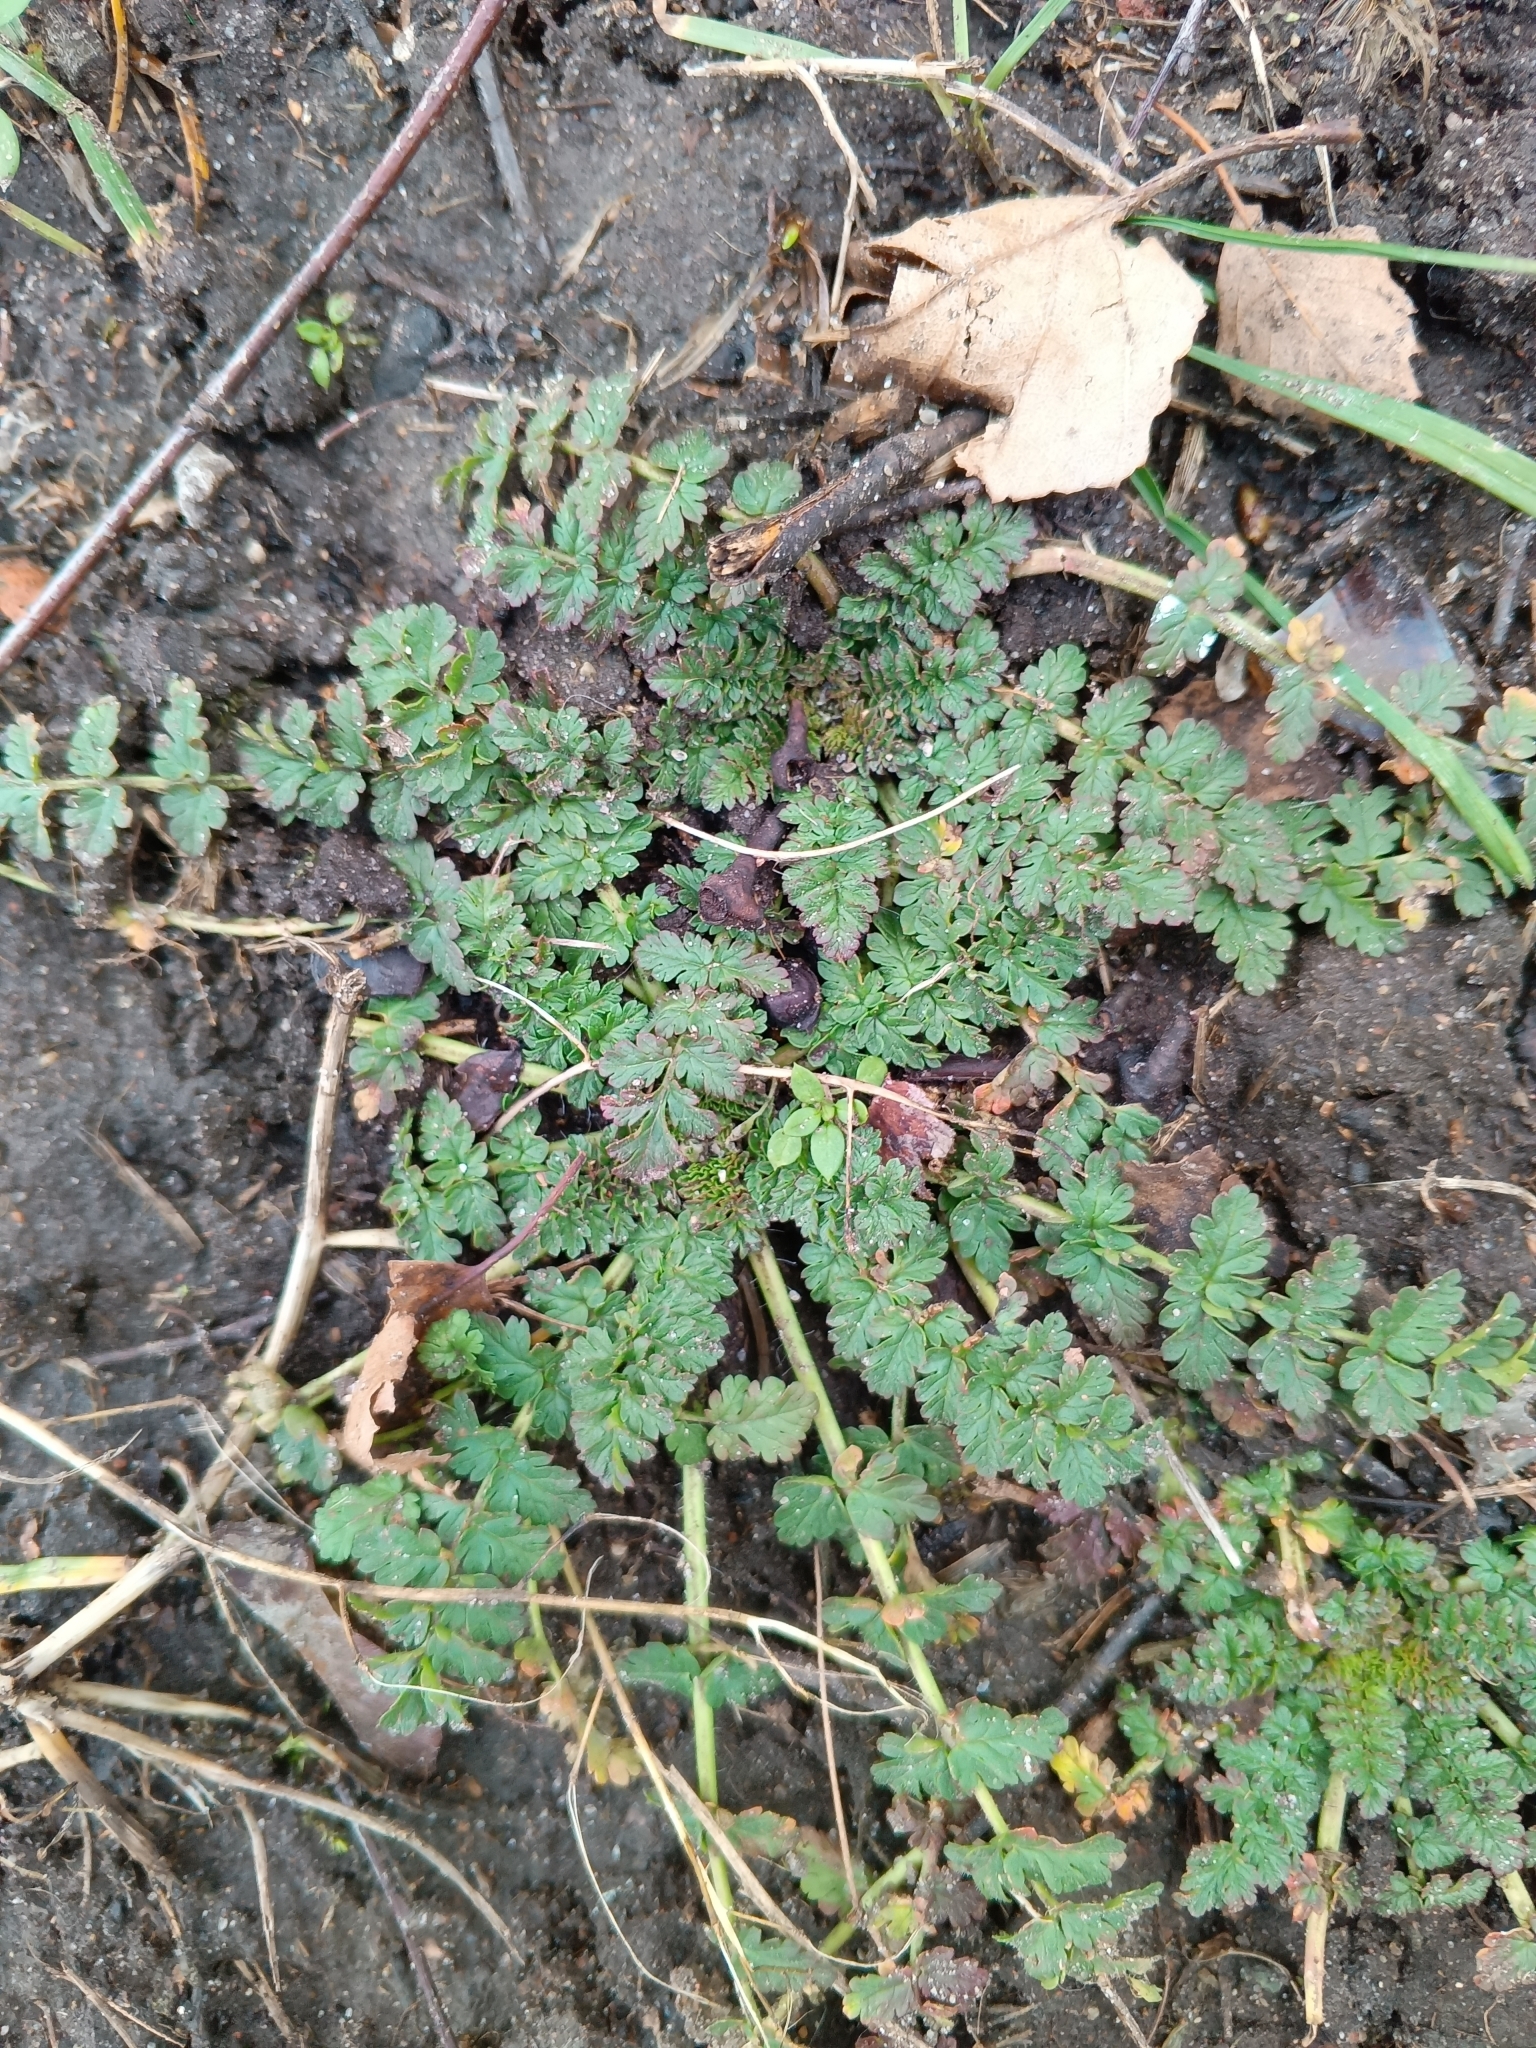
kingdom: Plantae
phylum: Tracheophyta
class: Magnoliopsida
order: Geraniales
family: Geraniaceae
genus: Erodium
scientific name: Erodium cicutarium
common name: Common stork's-bill
